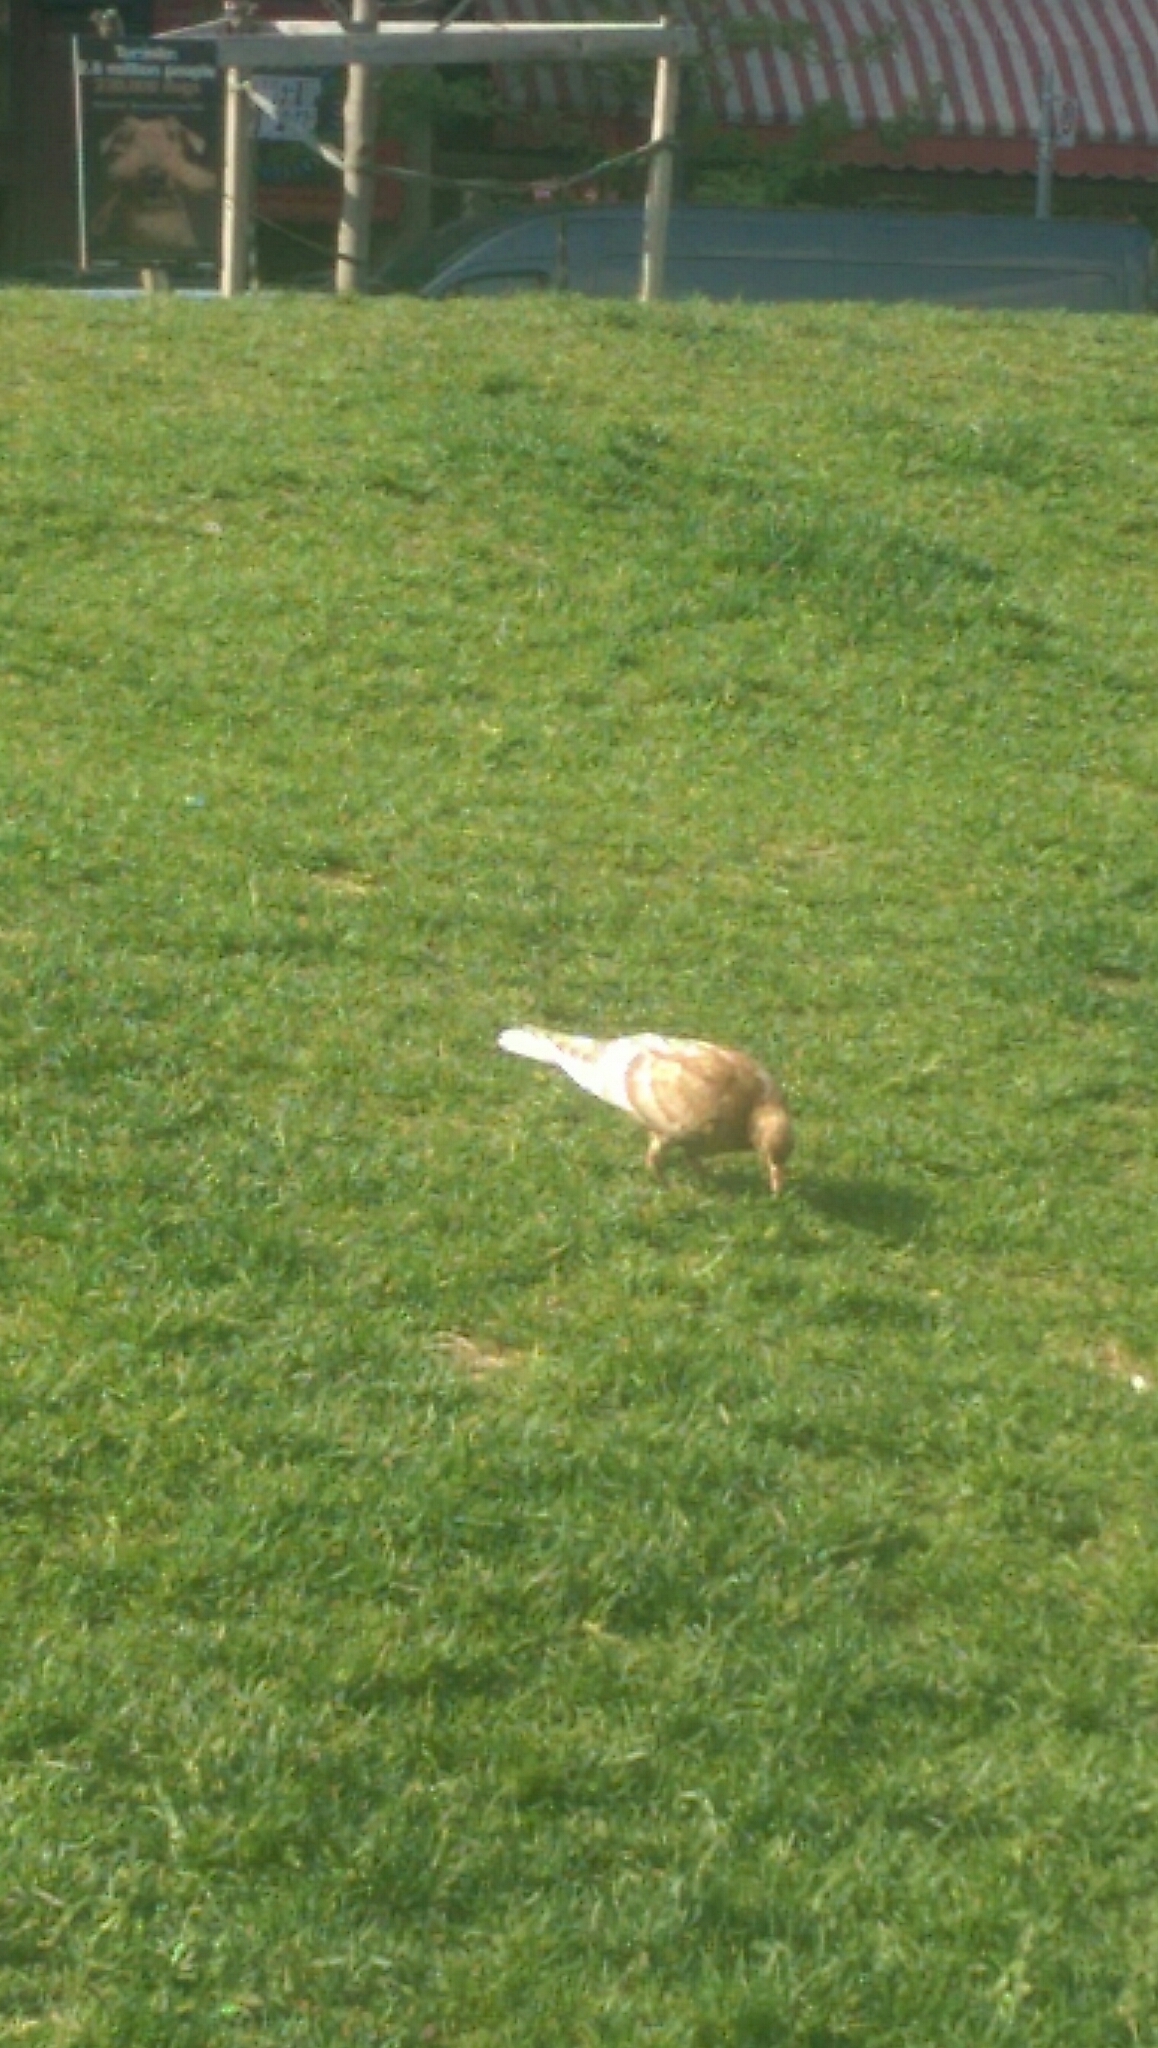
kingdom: Animalia
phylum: Chordata
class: Aves
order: Columbiformes
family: Columbidae
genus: Columba
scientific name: Columba livia
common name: Rock pigeon
